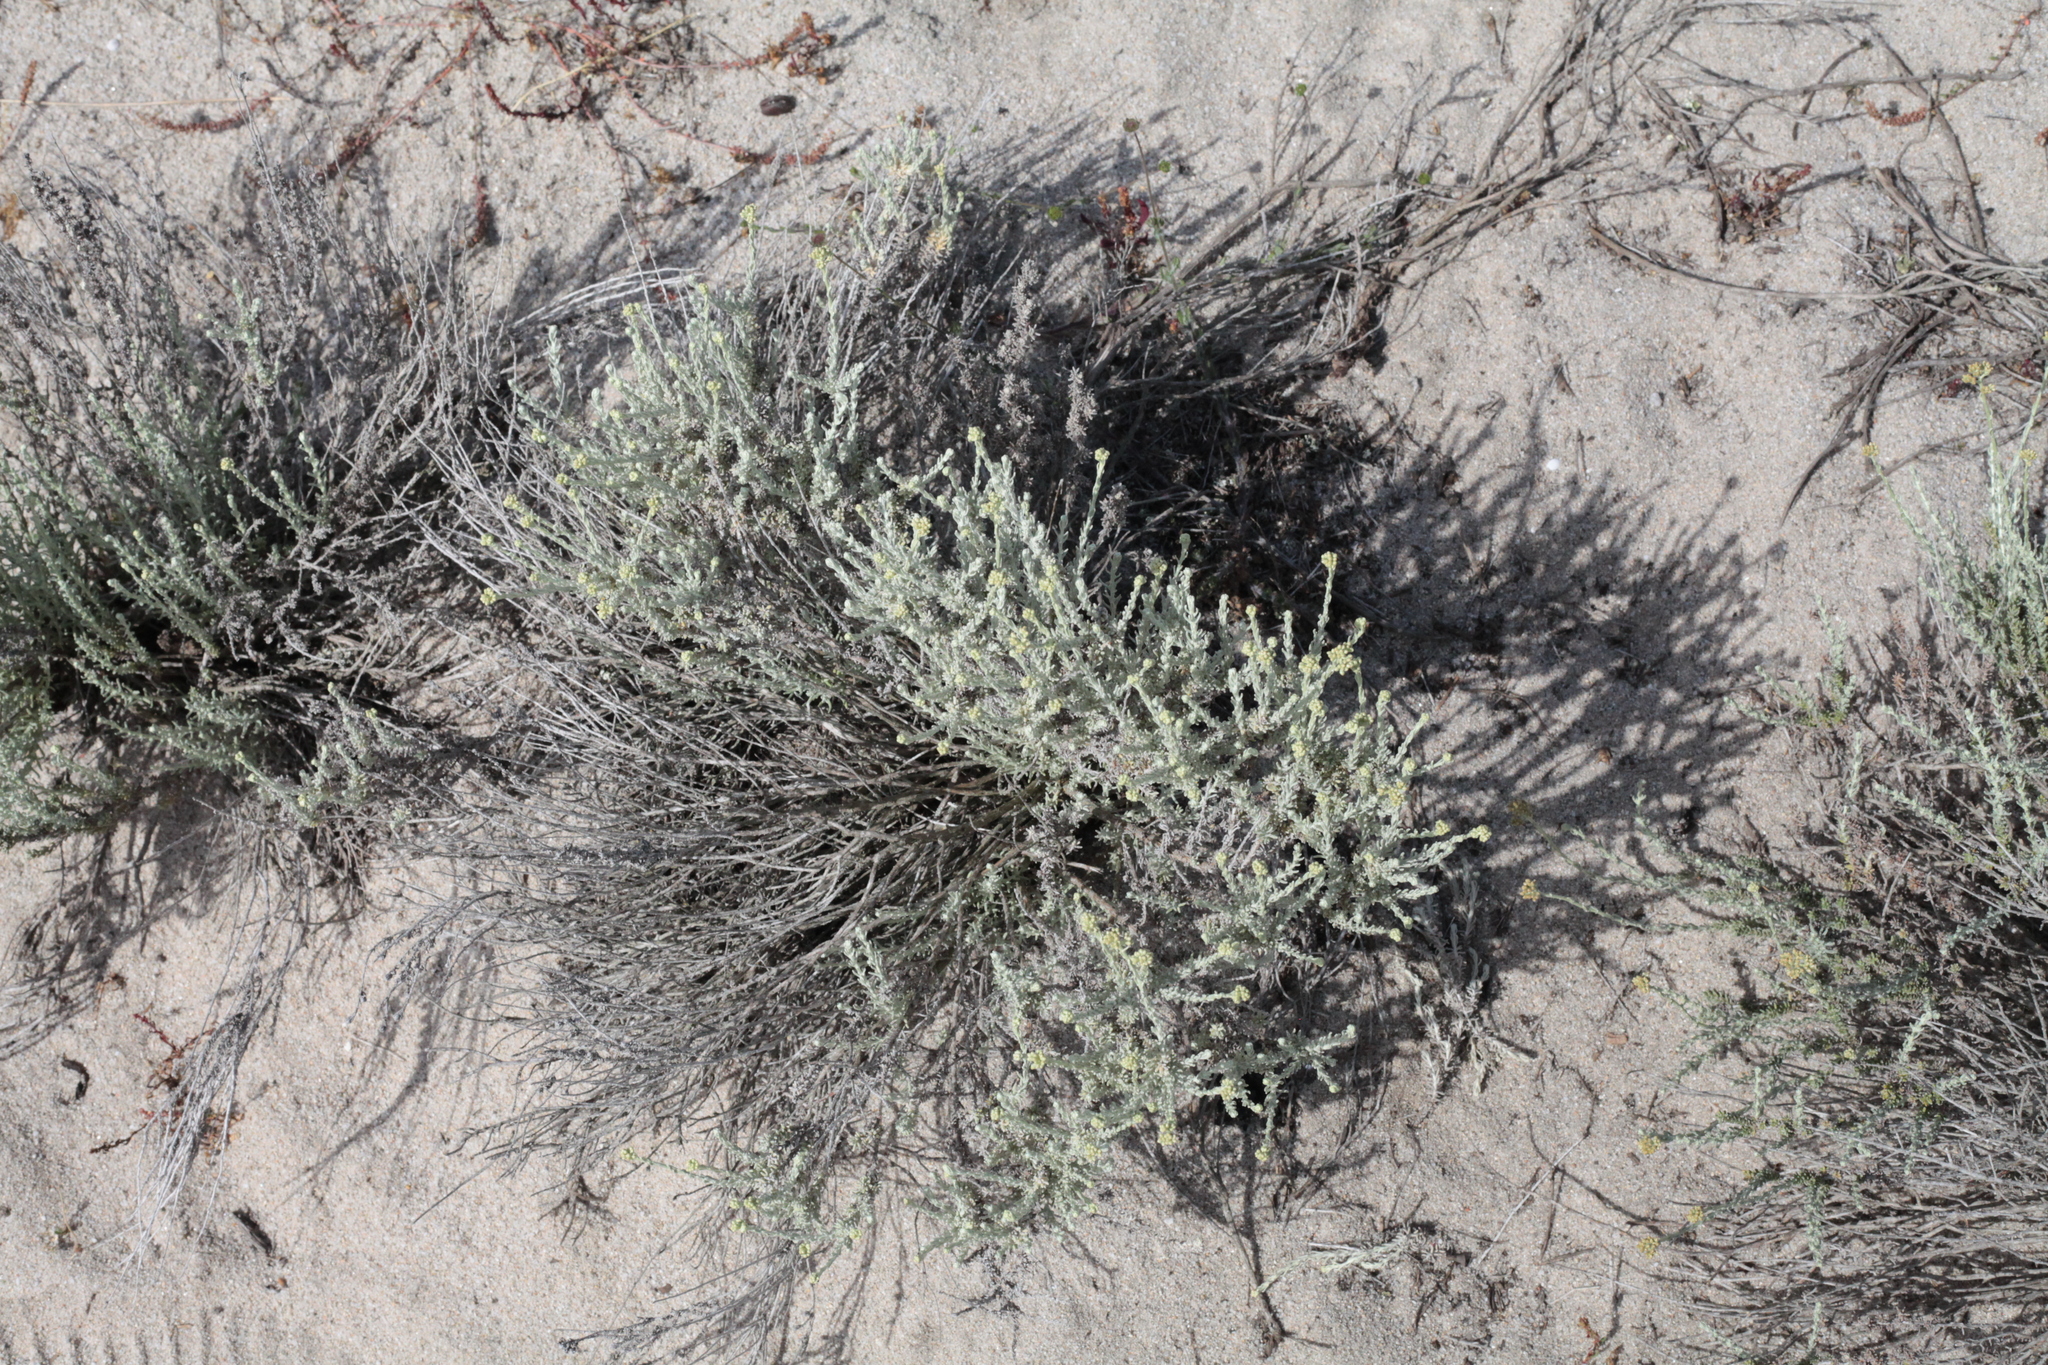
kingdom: Plantae
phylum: Tracheophyta
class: Magnoliopsida
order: Asterales
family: Asteraceae
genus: Helichrysum
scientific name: Helichrysum italicum
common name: Curryplant
